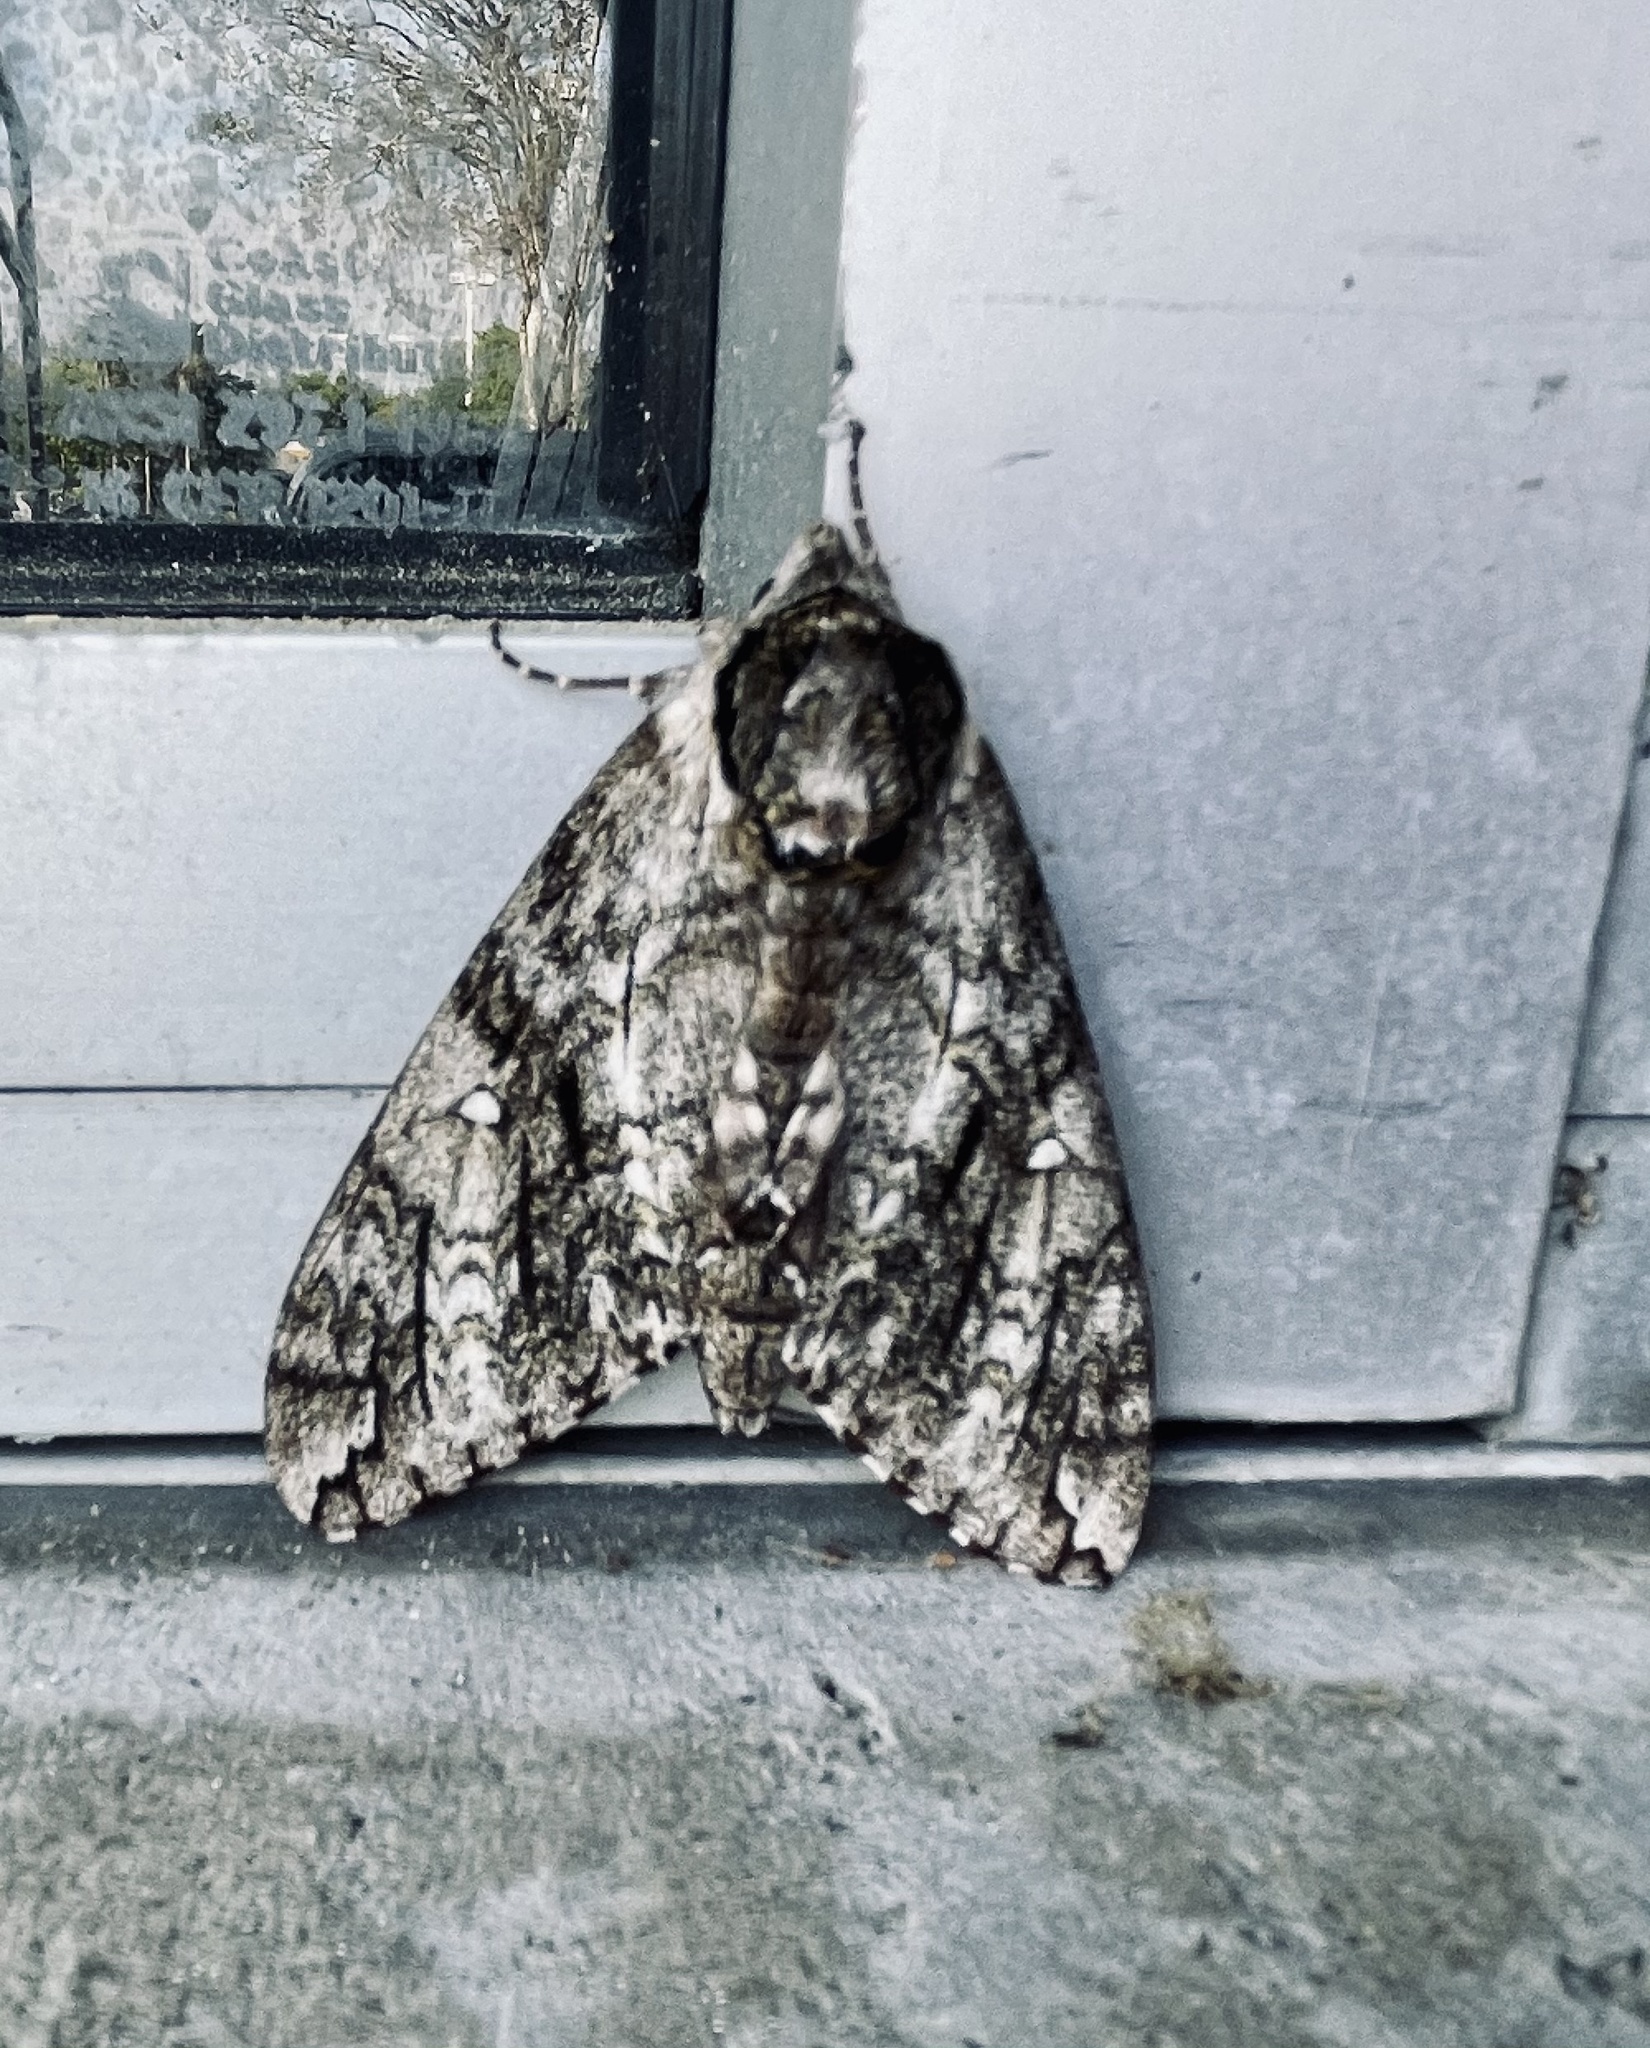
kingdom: Animalia
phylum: Arthropoda
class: Insecta
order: Lepidoptera
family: Sphingidae
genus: Ceratomia
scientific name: Ceratomia undulosa
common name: Waved sphinx
